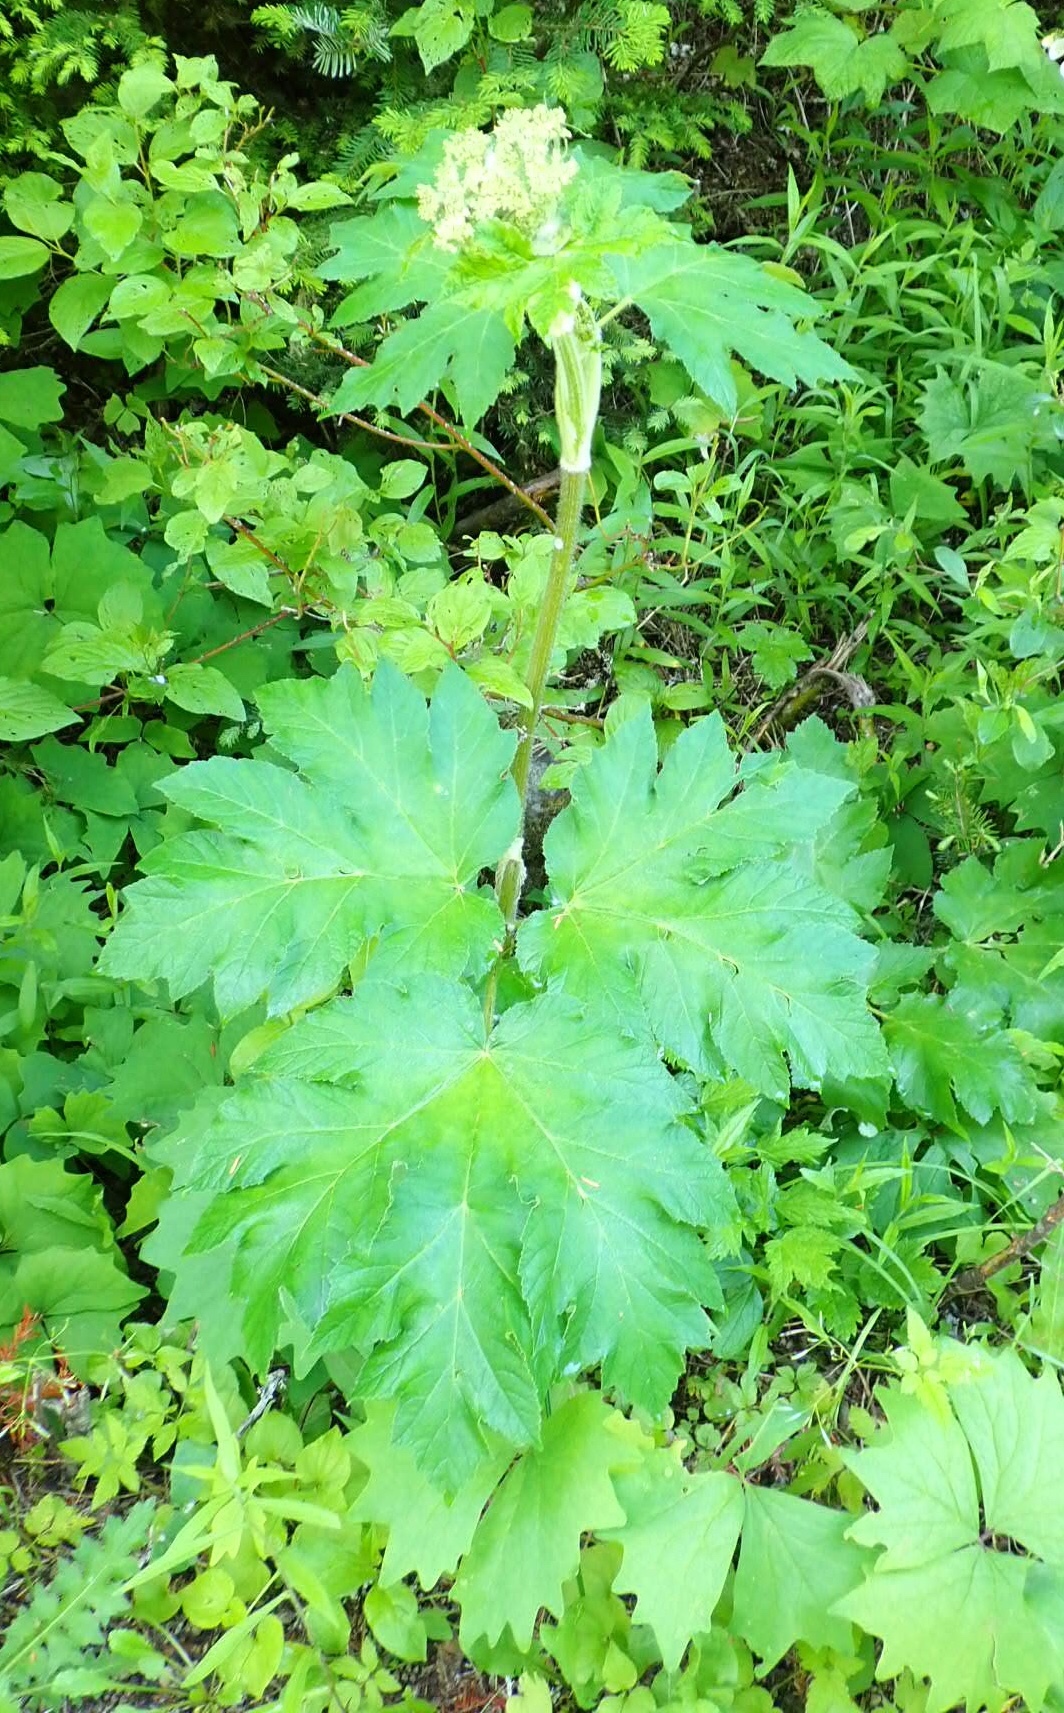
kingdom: Plantae
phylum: Tracheophyta
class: Magnoliopsida
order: Apiales
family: Apiaceae
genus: Heracleum
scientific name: Heracleum maximum
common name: American cow parsnip
